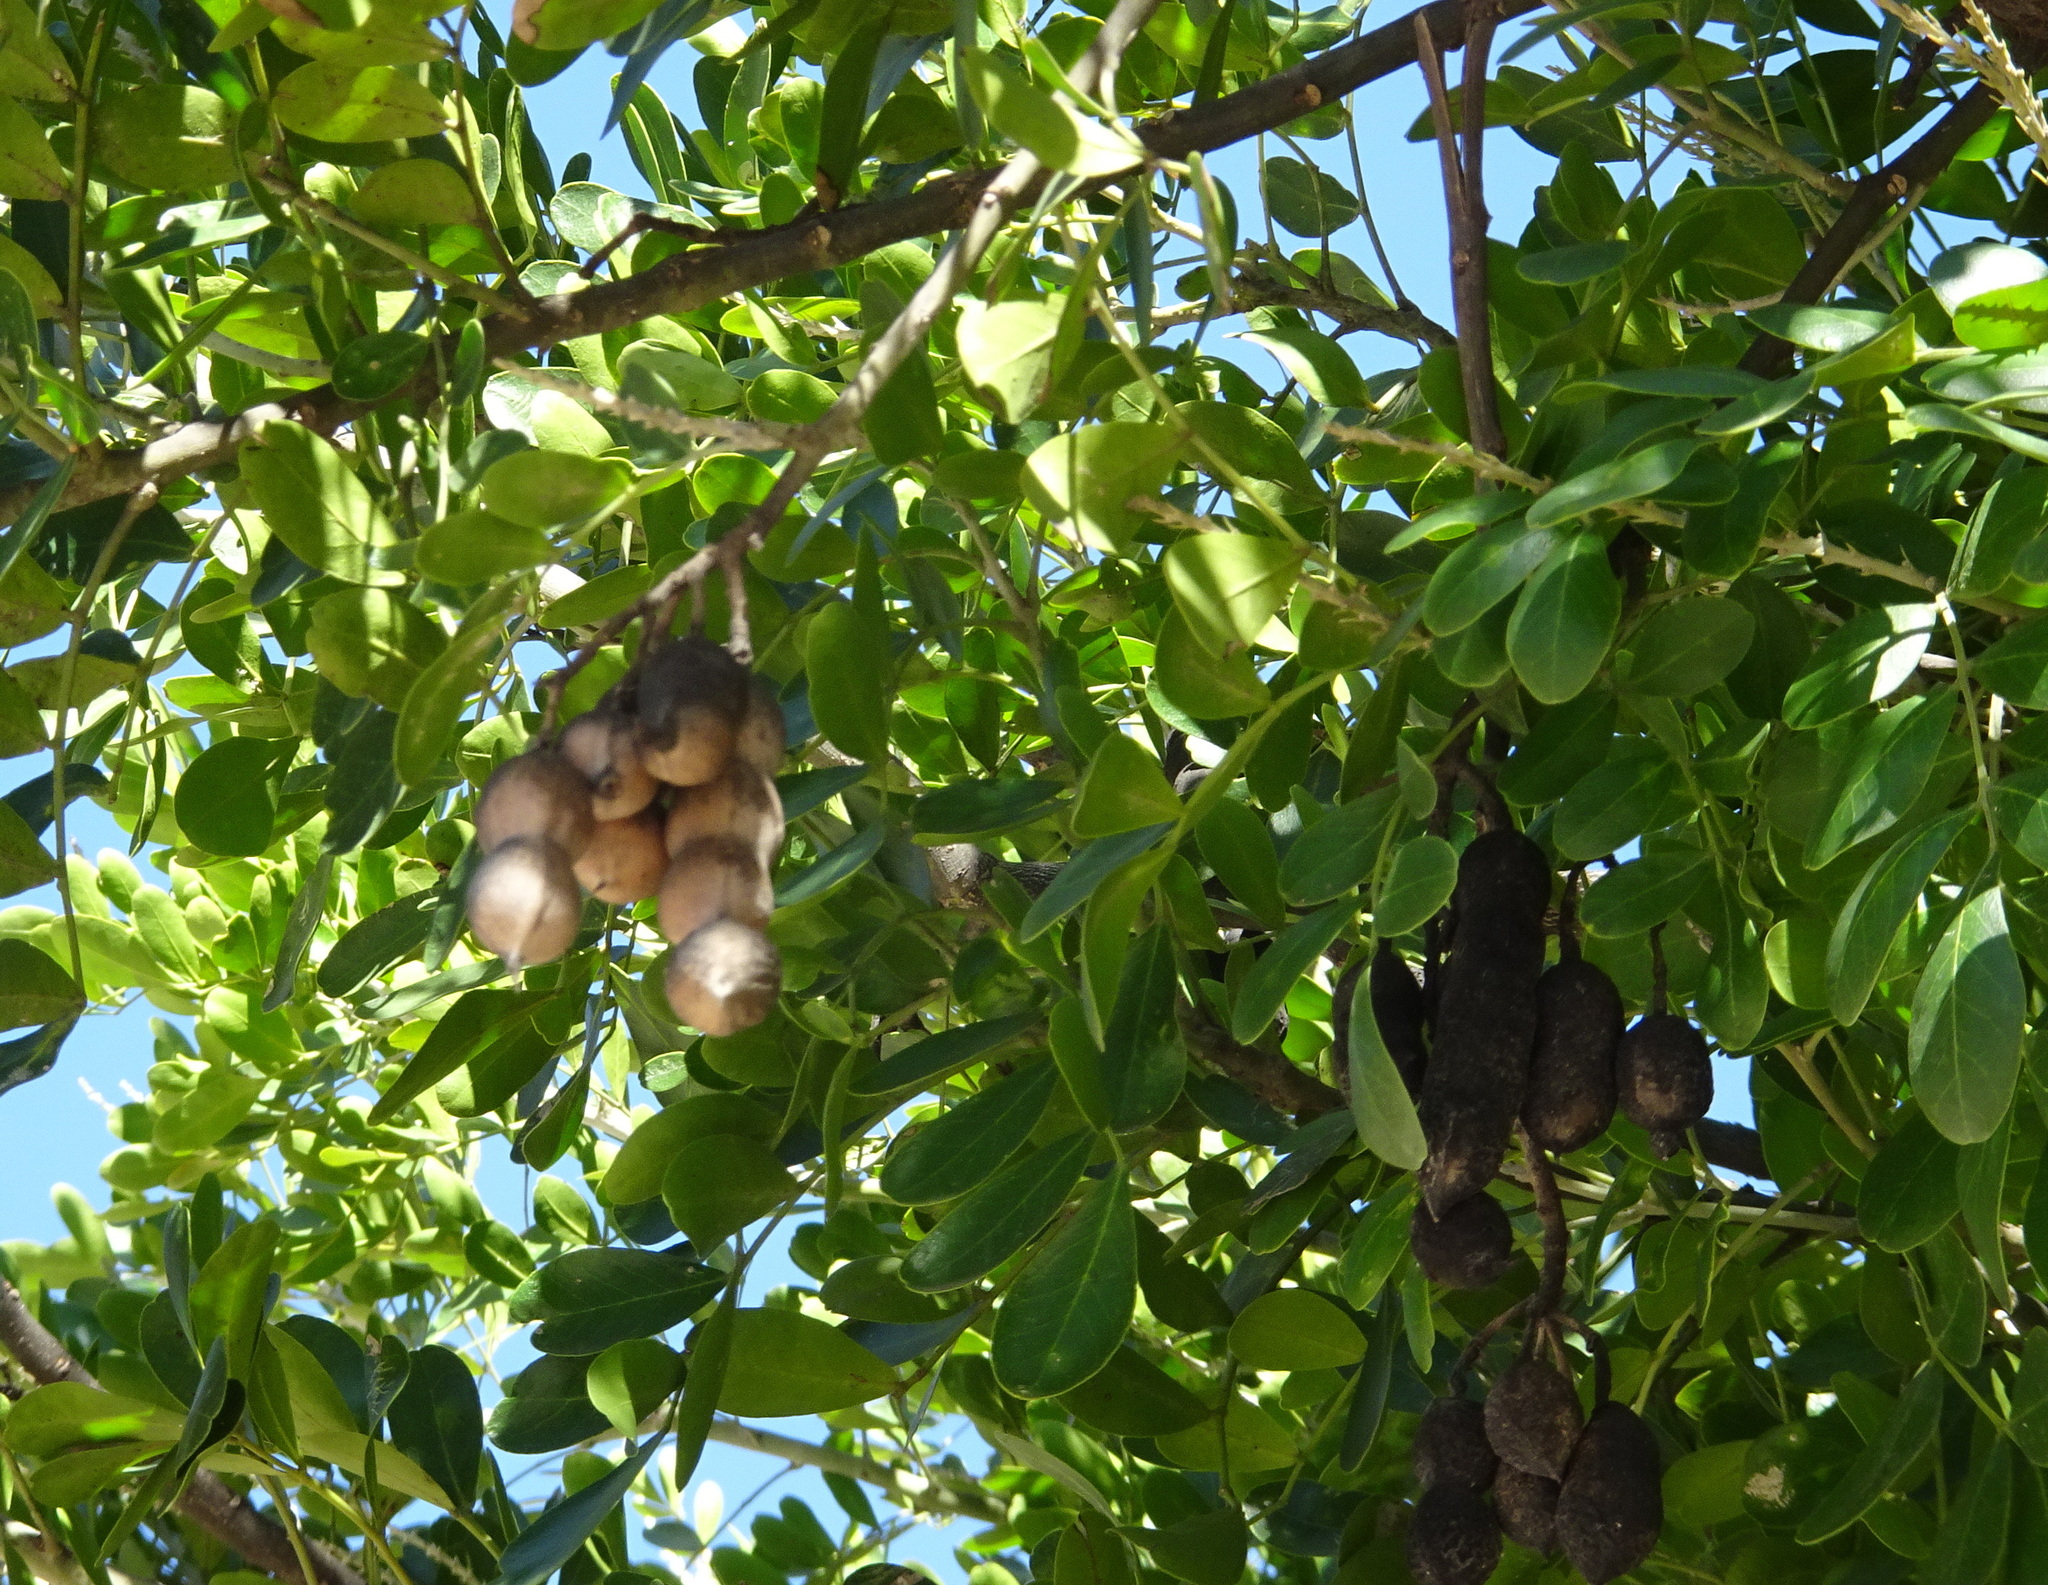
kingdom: Plantae
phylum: Tracheophyta
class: Magnoliopsida
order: Fabales
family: Fabaceae
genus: Dermatophyllum
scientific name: Dermatophyllum secundiflorum
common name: Texas-mountain-laurel
